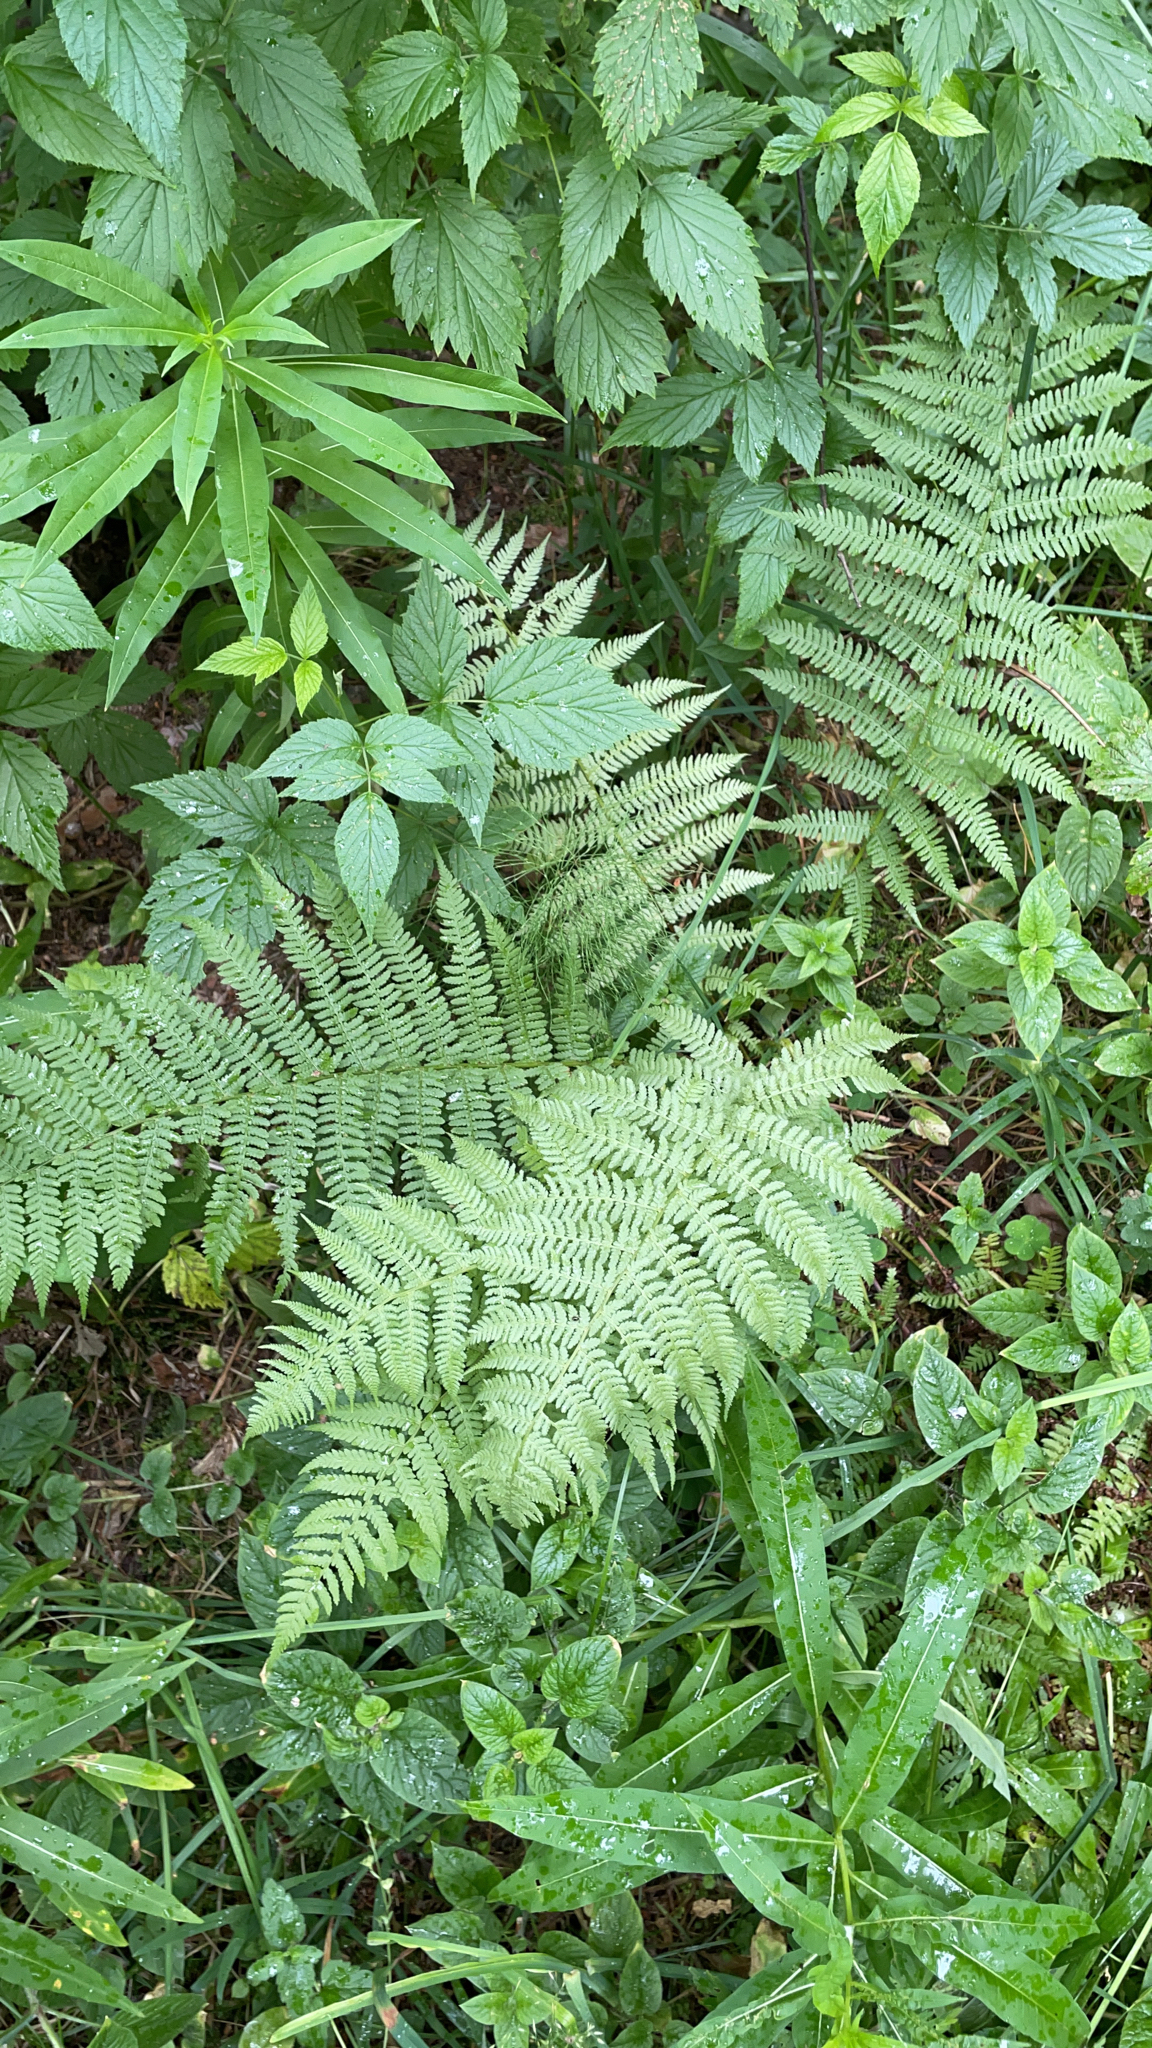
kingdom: Plantae
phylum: Tracheophyta
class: Polypodiopsida
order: Polypodiales
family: Athyriaceae
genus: Athyrium
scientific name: Athyrium filix-femina
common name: Lady fern
